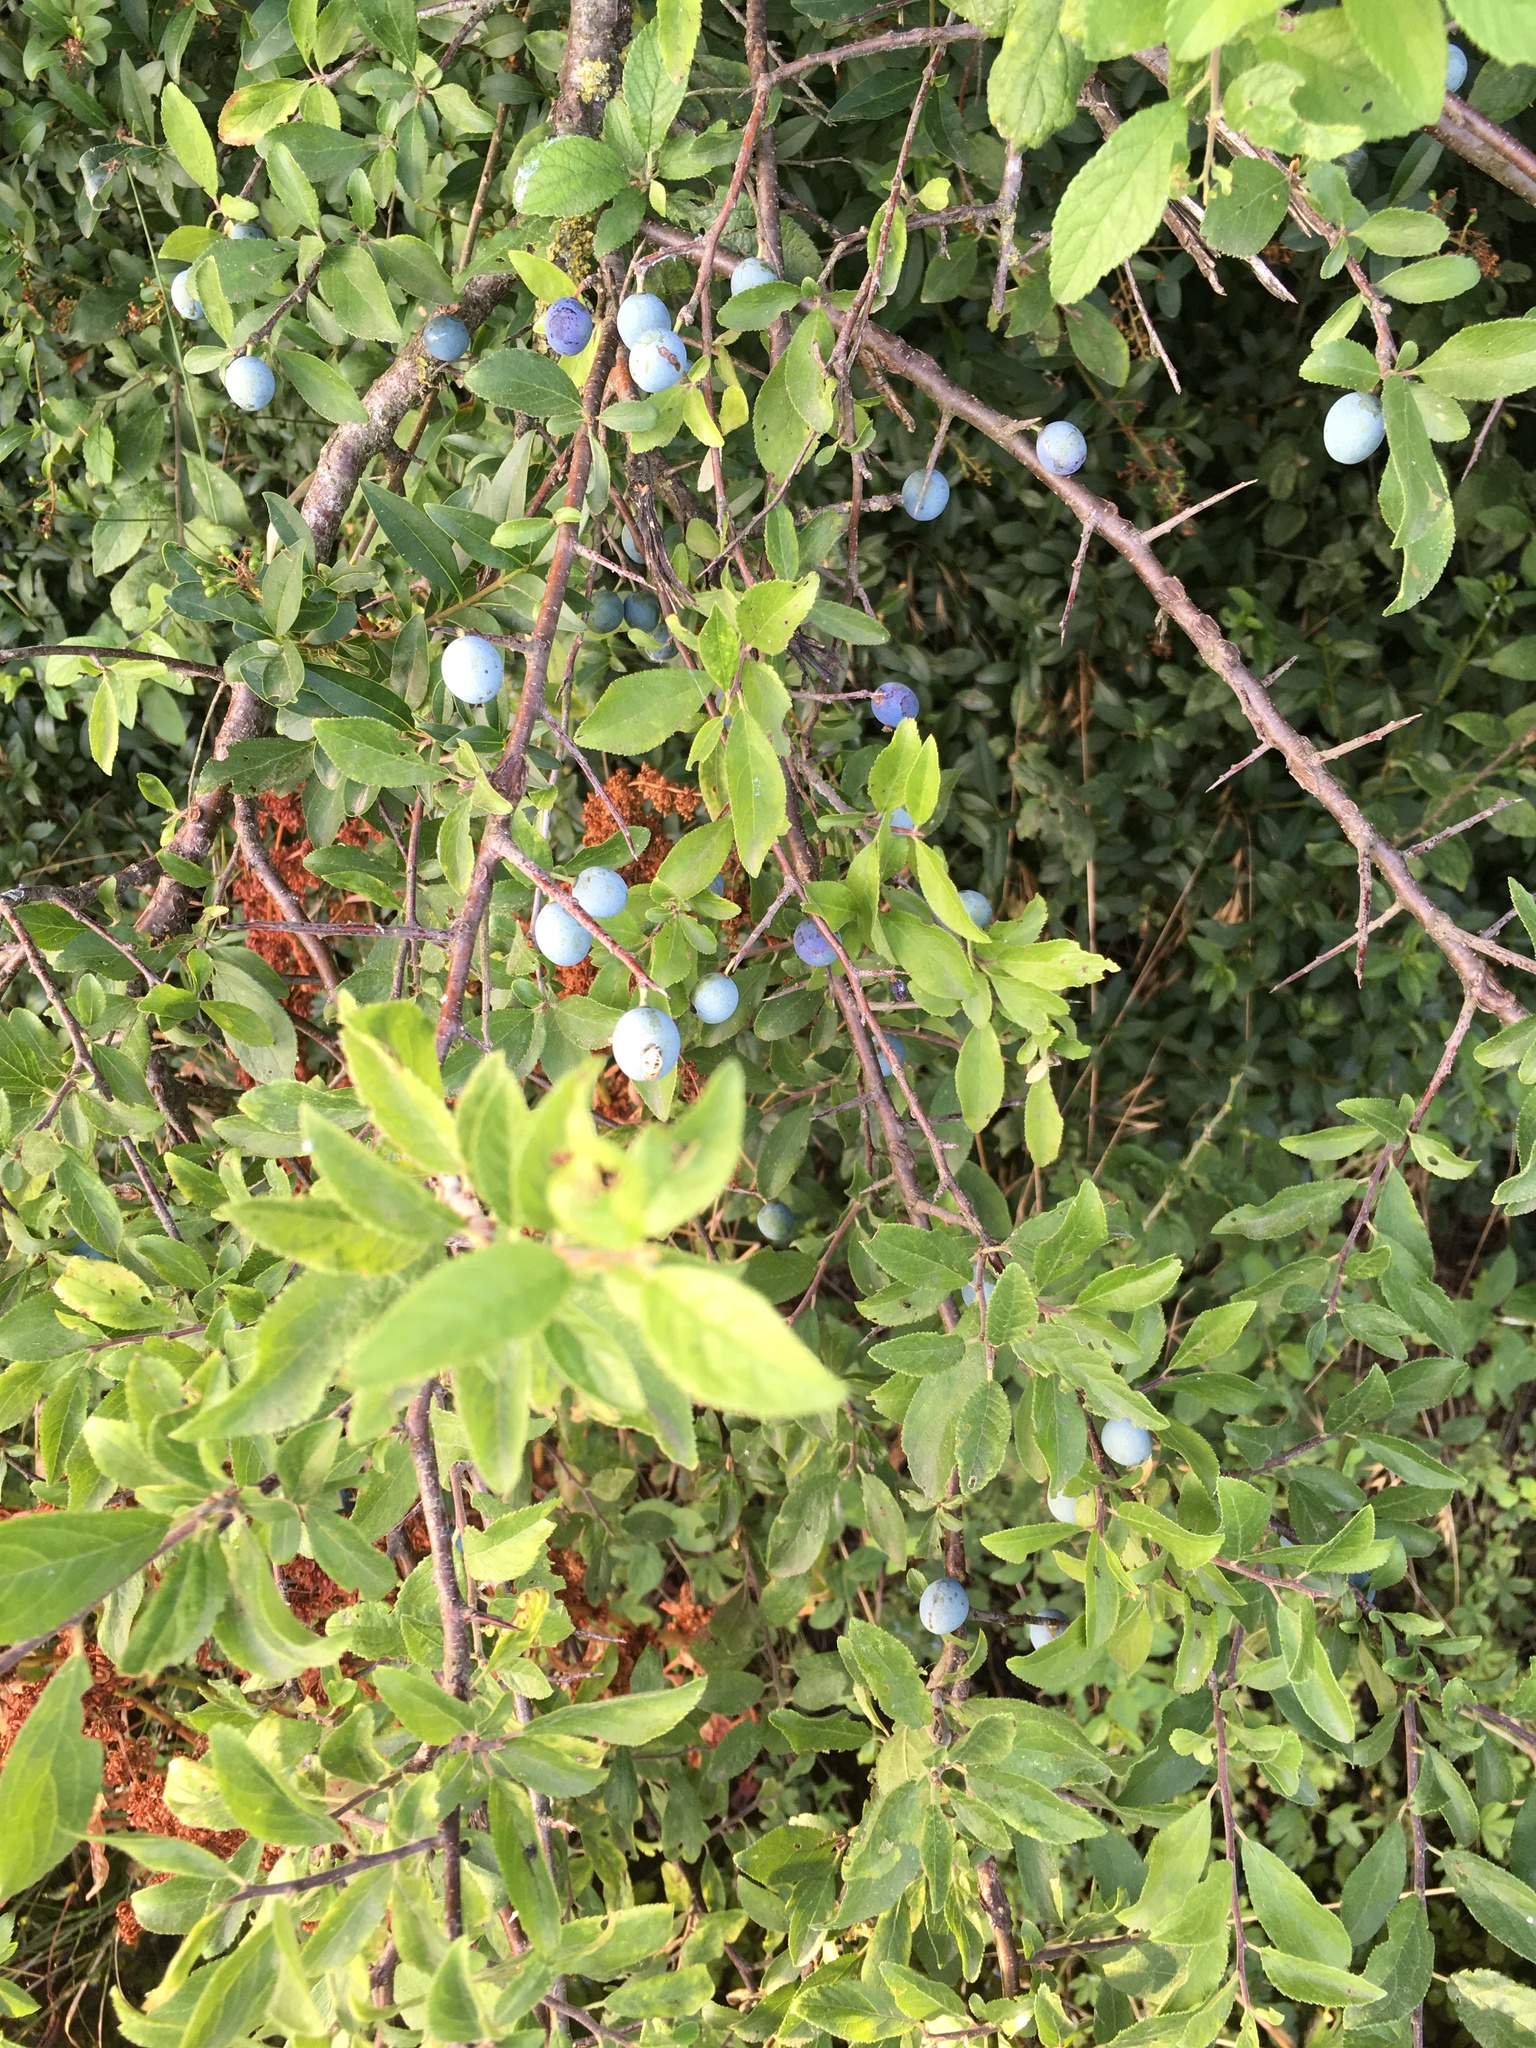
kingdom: Plantae
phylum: Tracheophyta
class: Magnoliopsida
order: Rosales
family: Rosaceae
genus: Prunus
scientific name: Prunus spinosa
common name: Blackthorn
